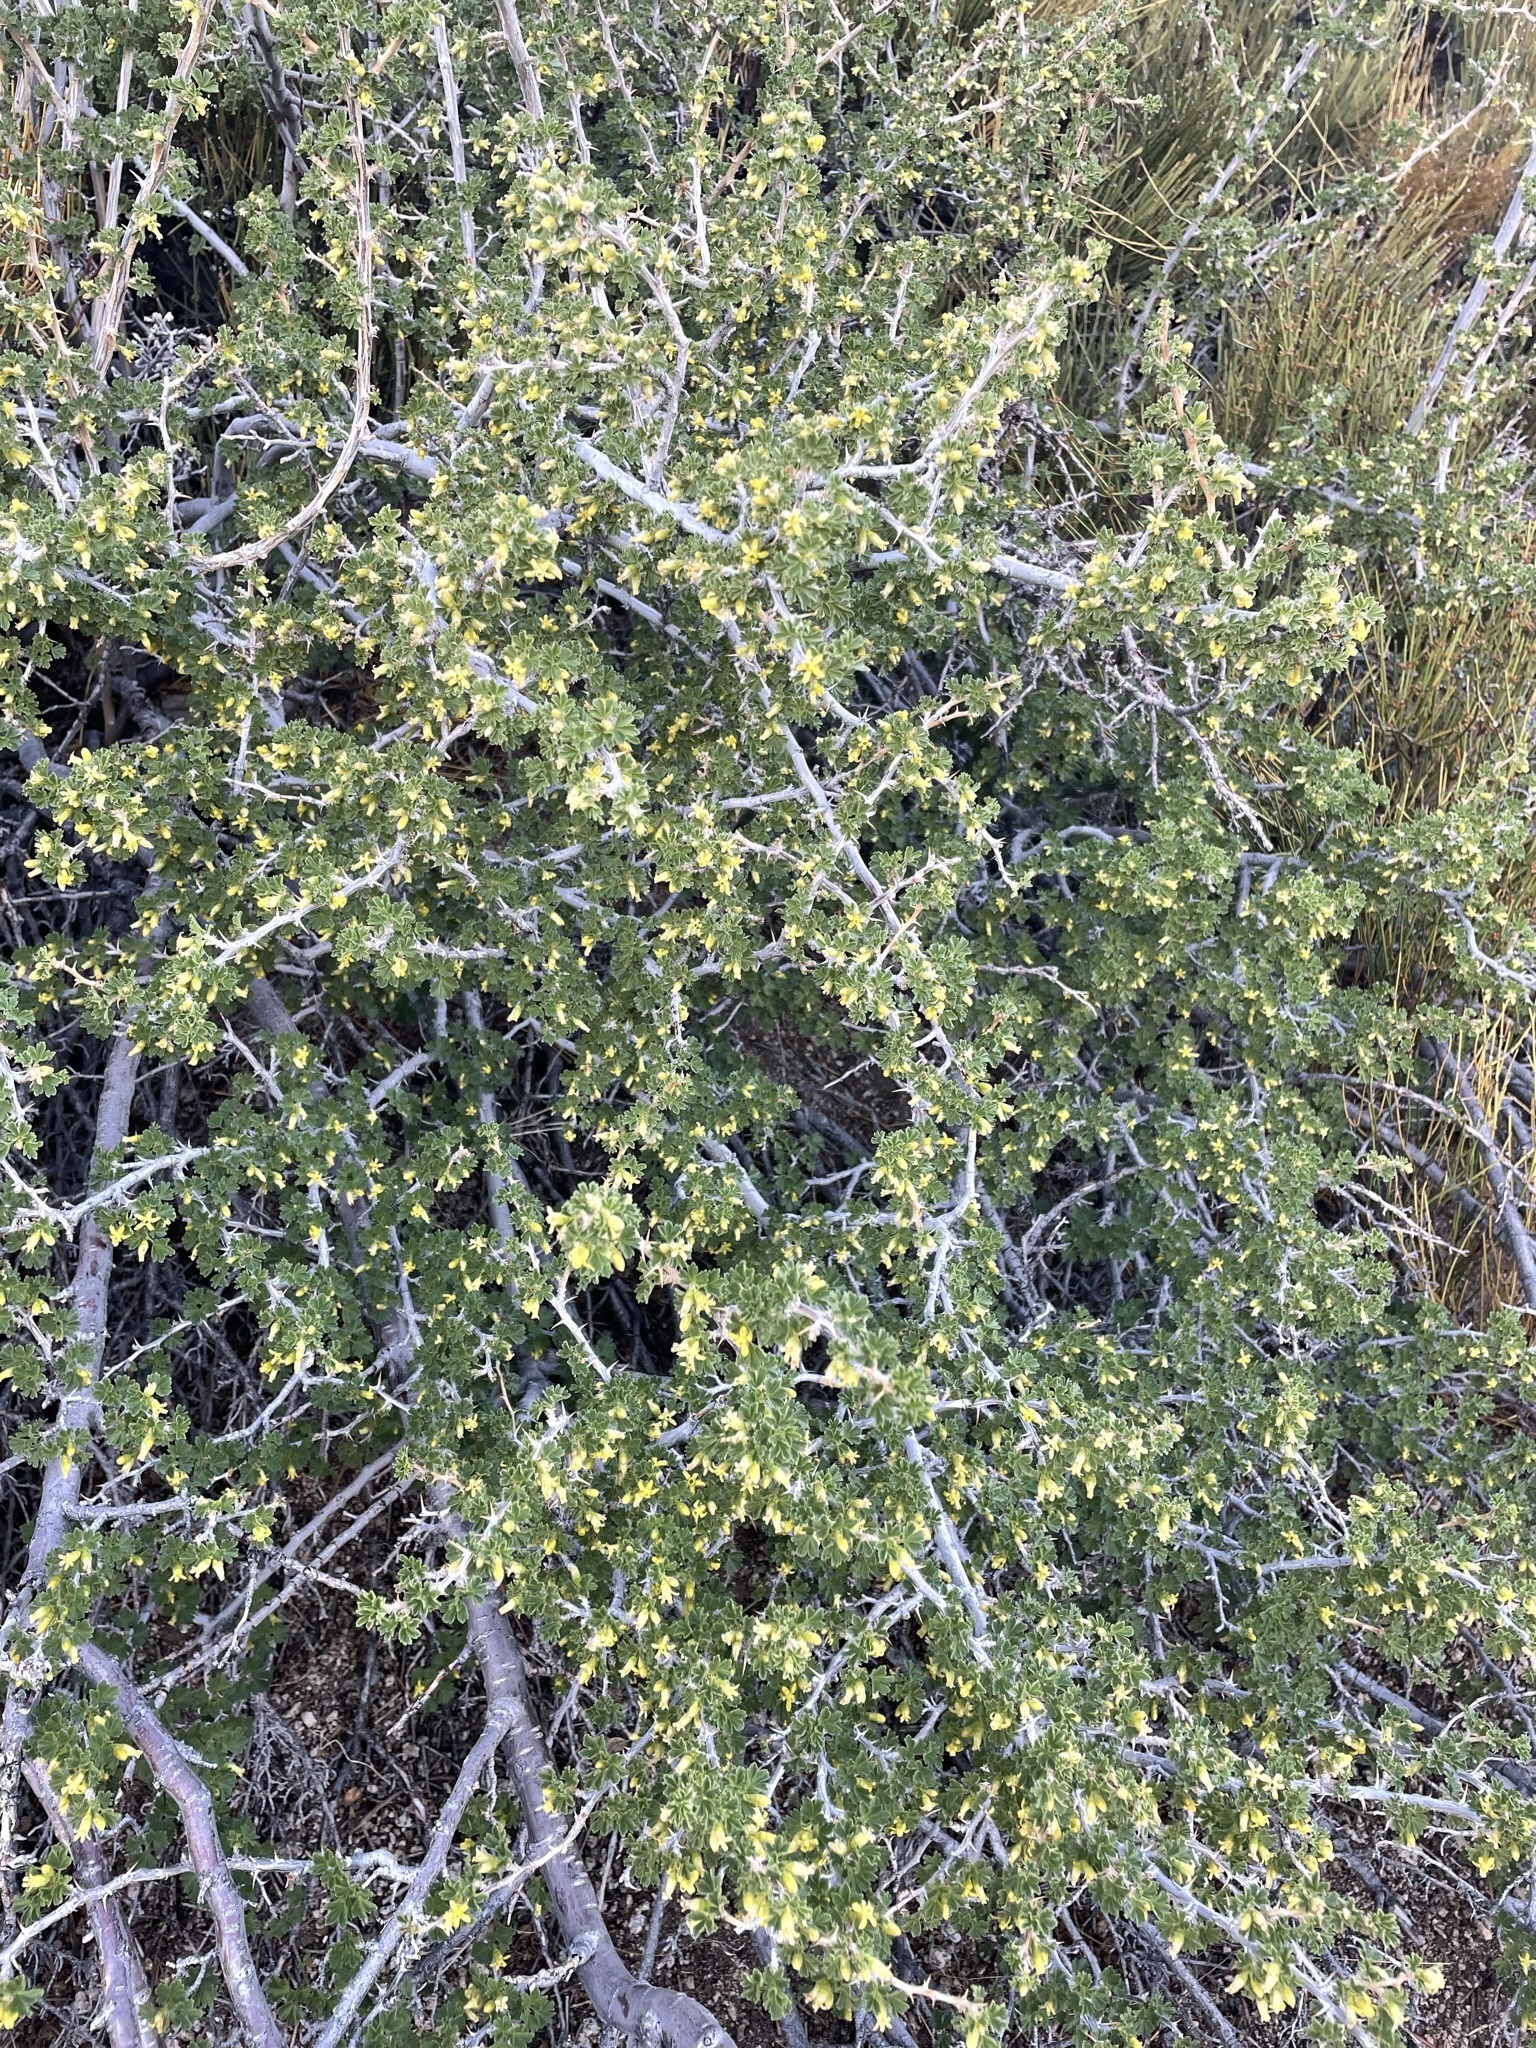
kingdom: Plantae
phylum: Tracheophyta
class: Magnoliopsida
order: Saxifragales
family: Grossulariaceae
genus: Ribes
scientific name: Ribes velutinum
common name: Desert gooseberry
